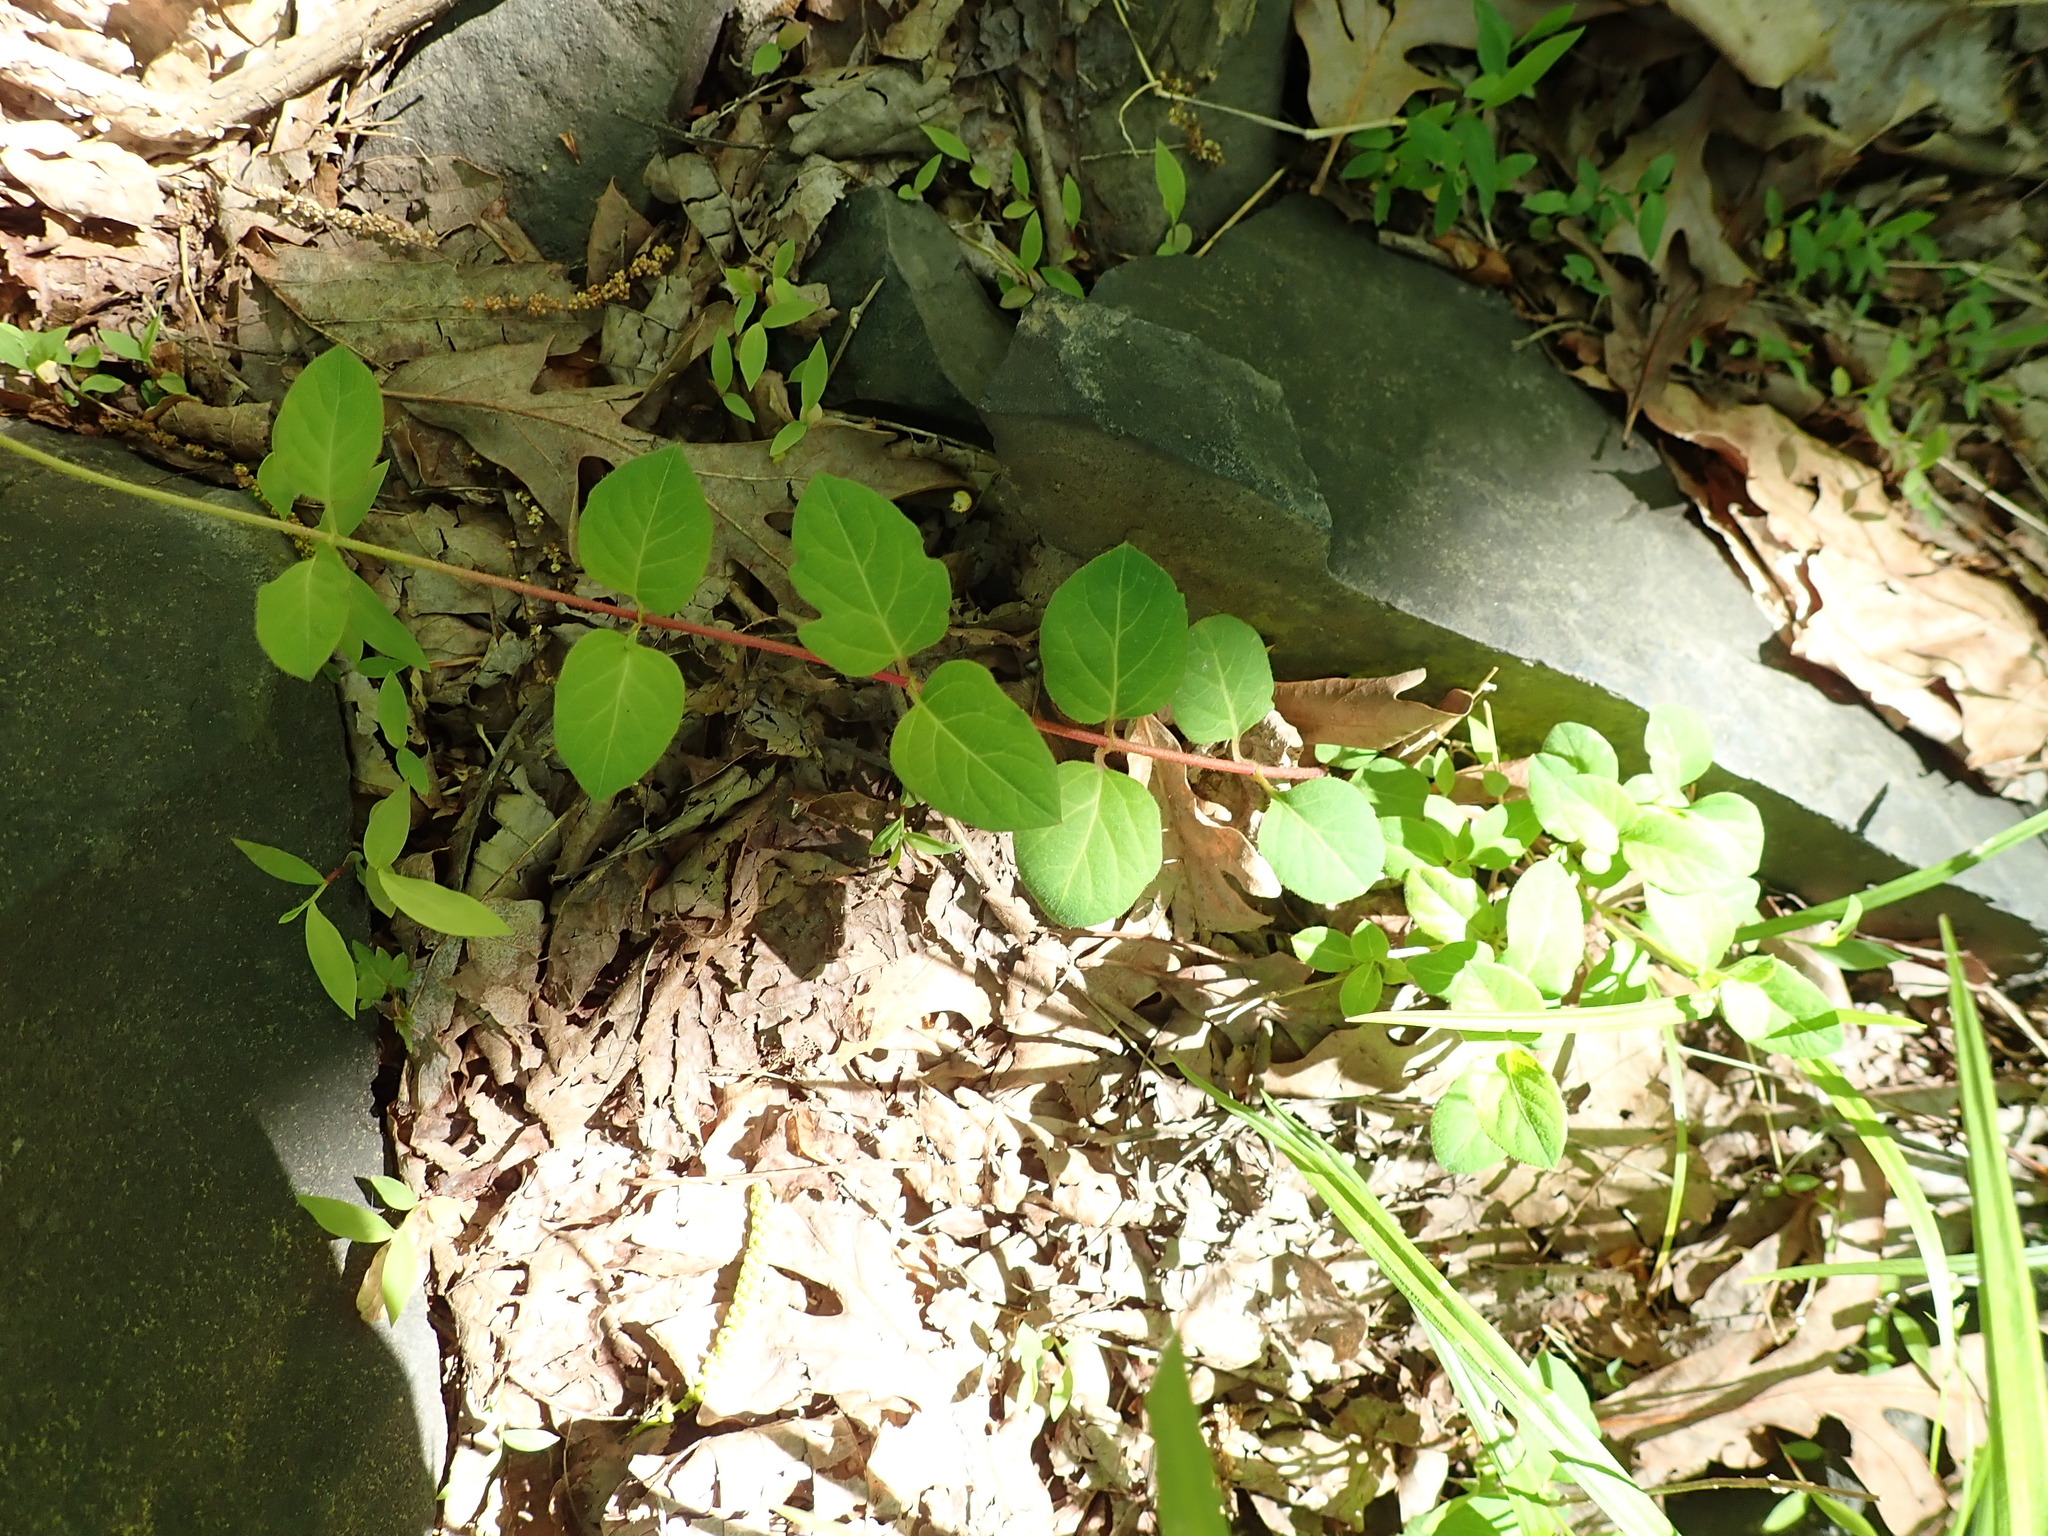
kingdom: Plantae
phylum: Tracheophyta
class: Magnoliopsida
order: Dipsacales
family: Caprifoliaceae
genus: Lonicera
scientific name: Lonicera japonica
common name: Japanese honeysuckle
